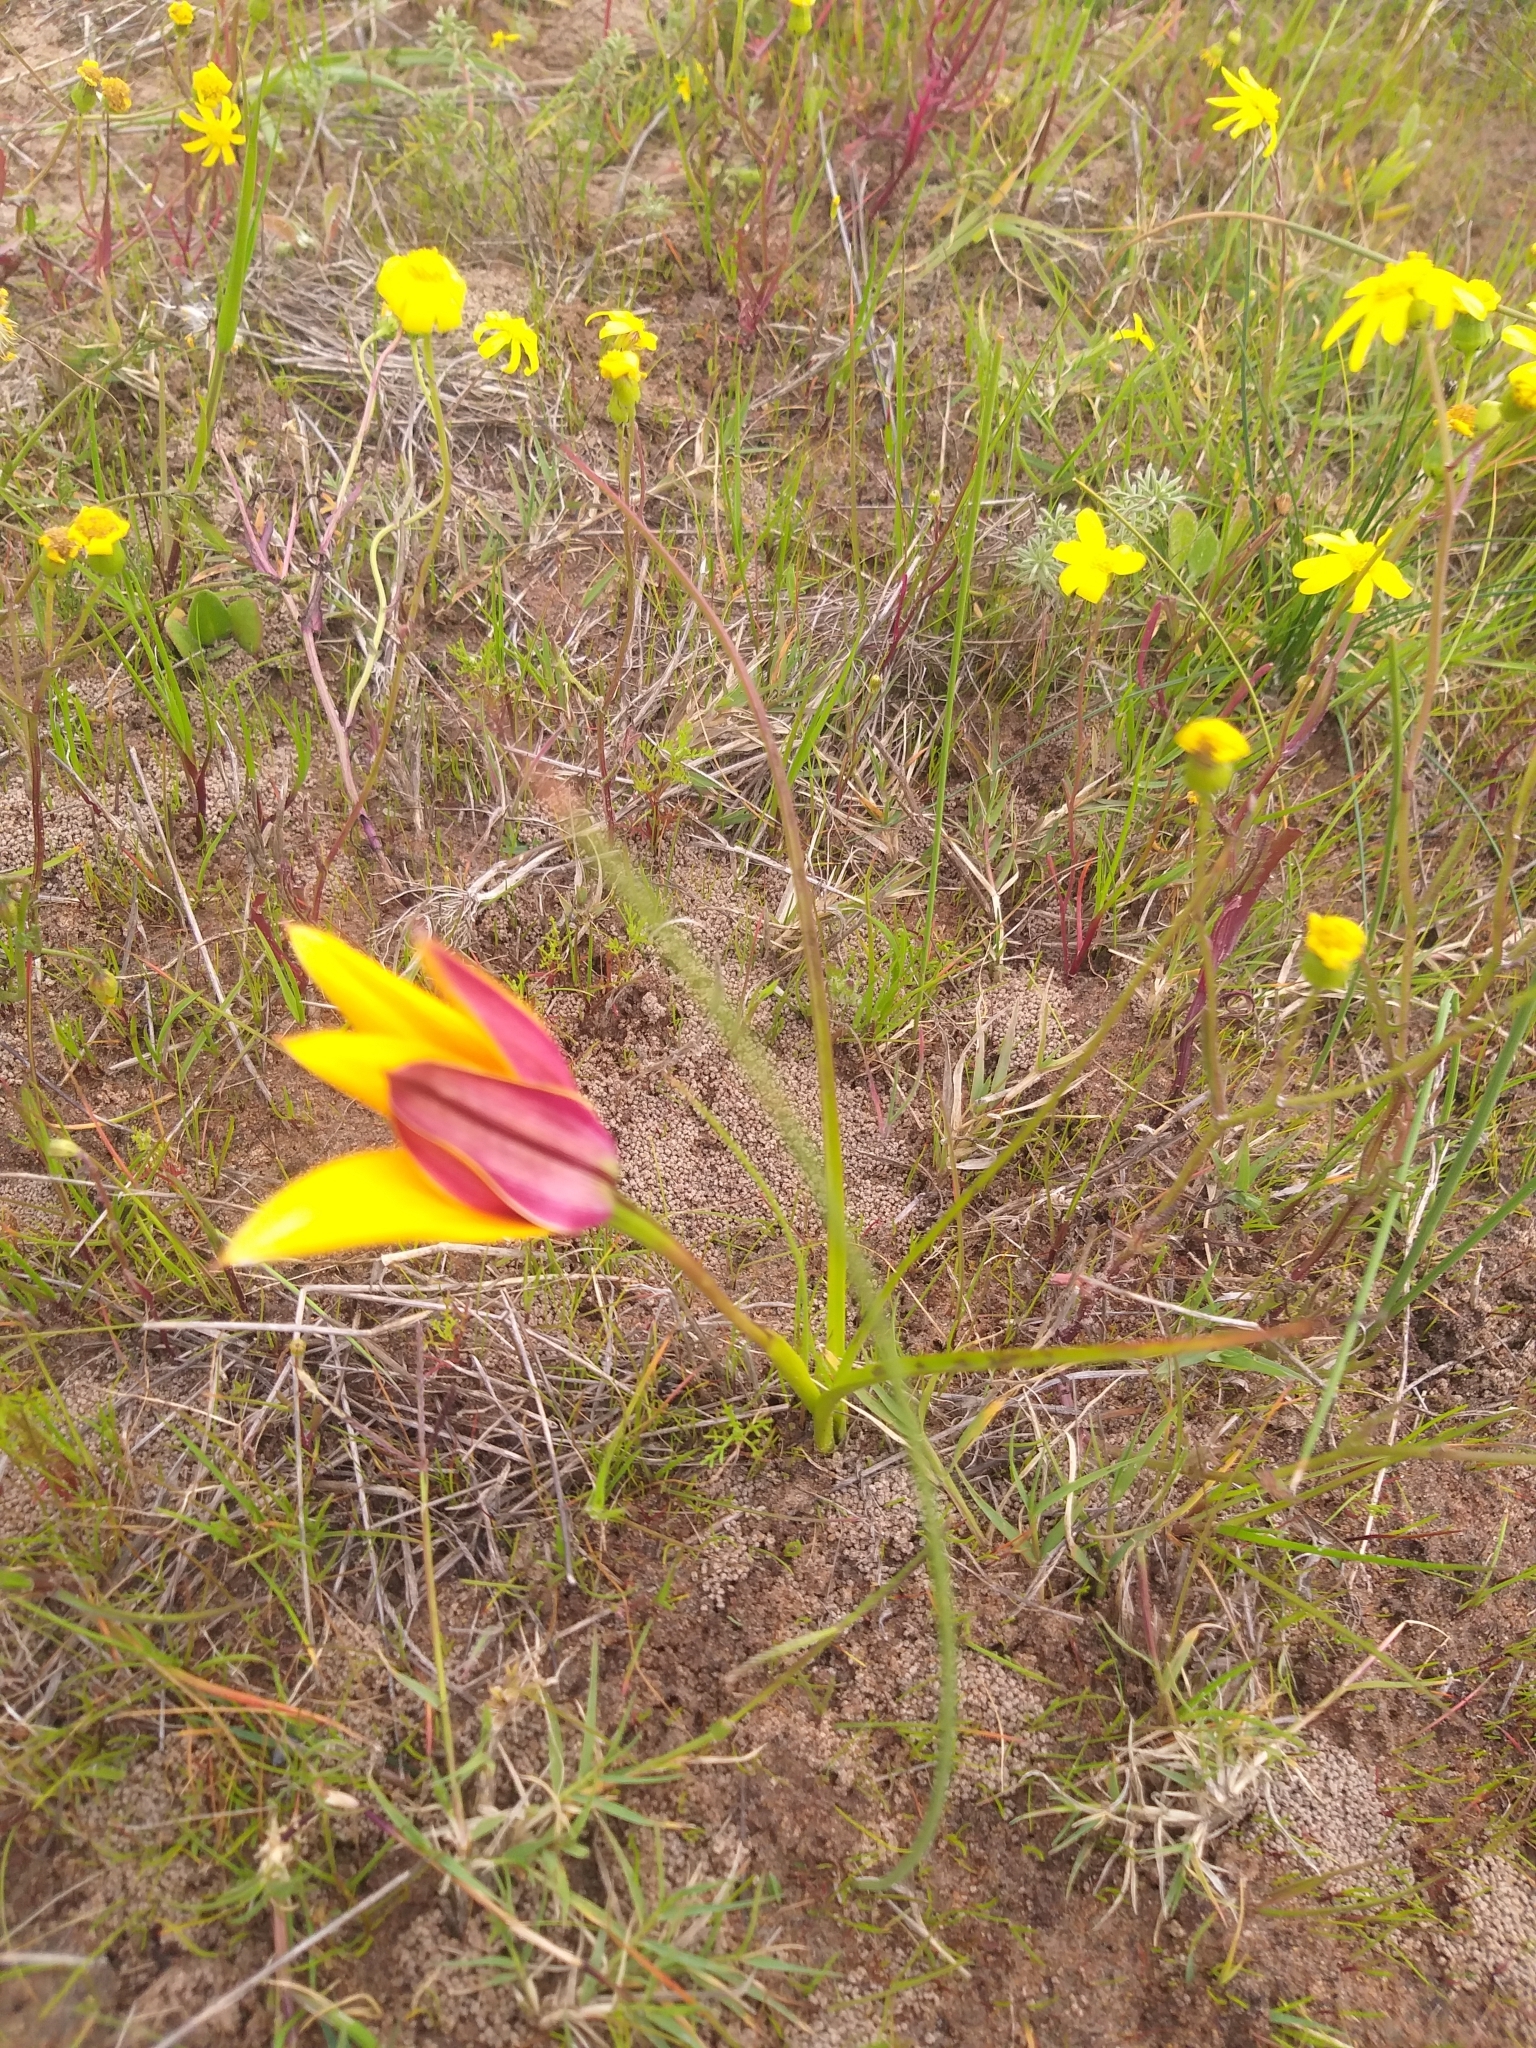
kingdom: Plantae
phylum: Tracheophyta
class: Liliopsida
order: Asparagales
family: Hypoxidaceae
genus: Pauridia
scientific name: Pauridia canaliculata
